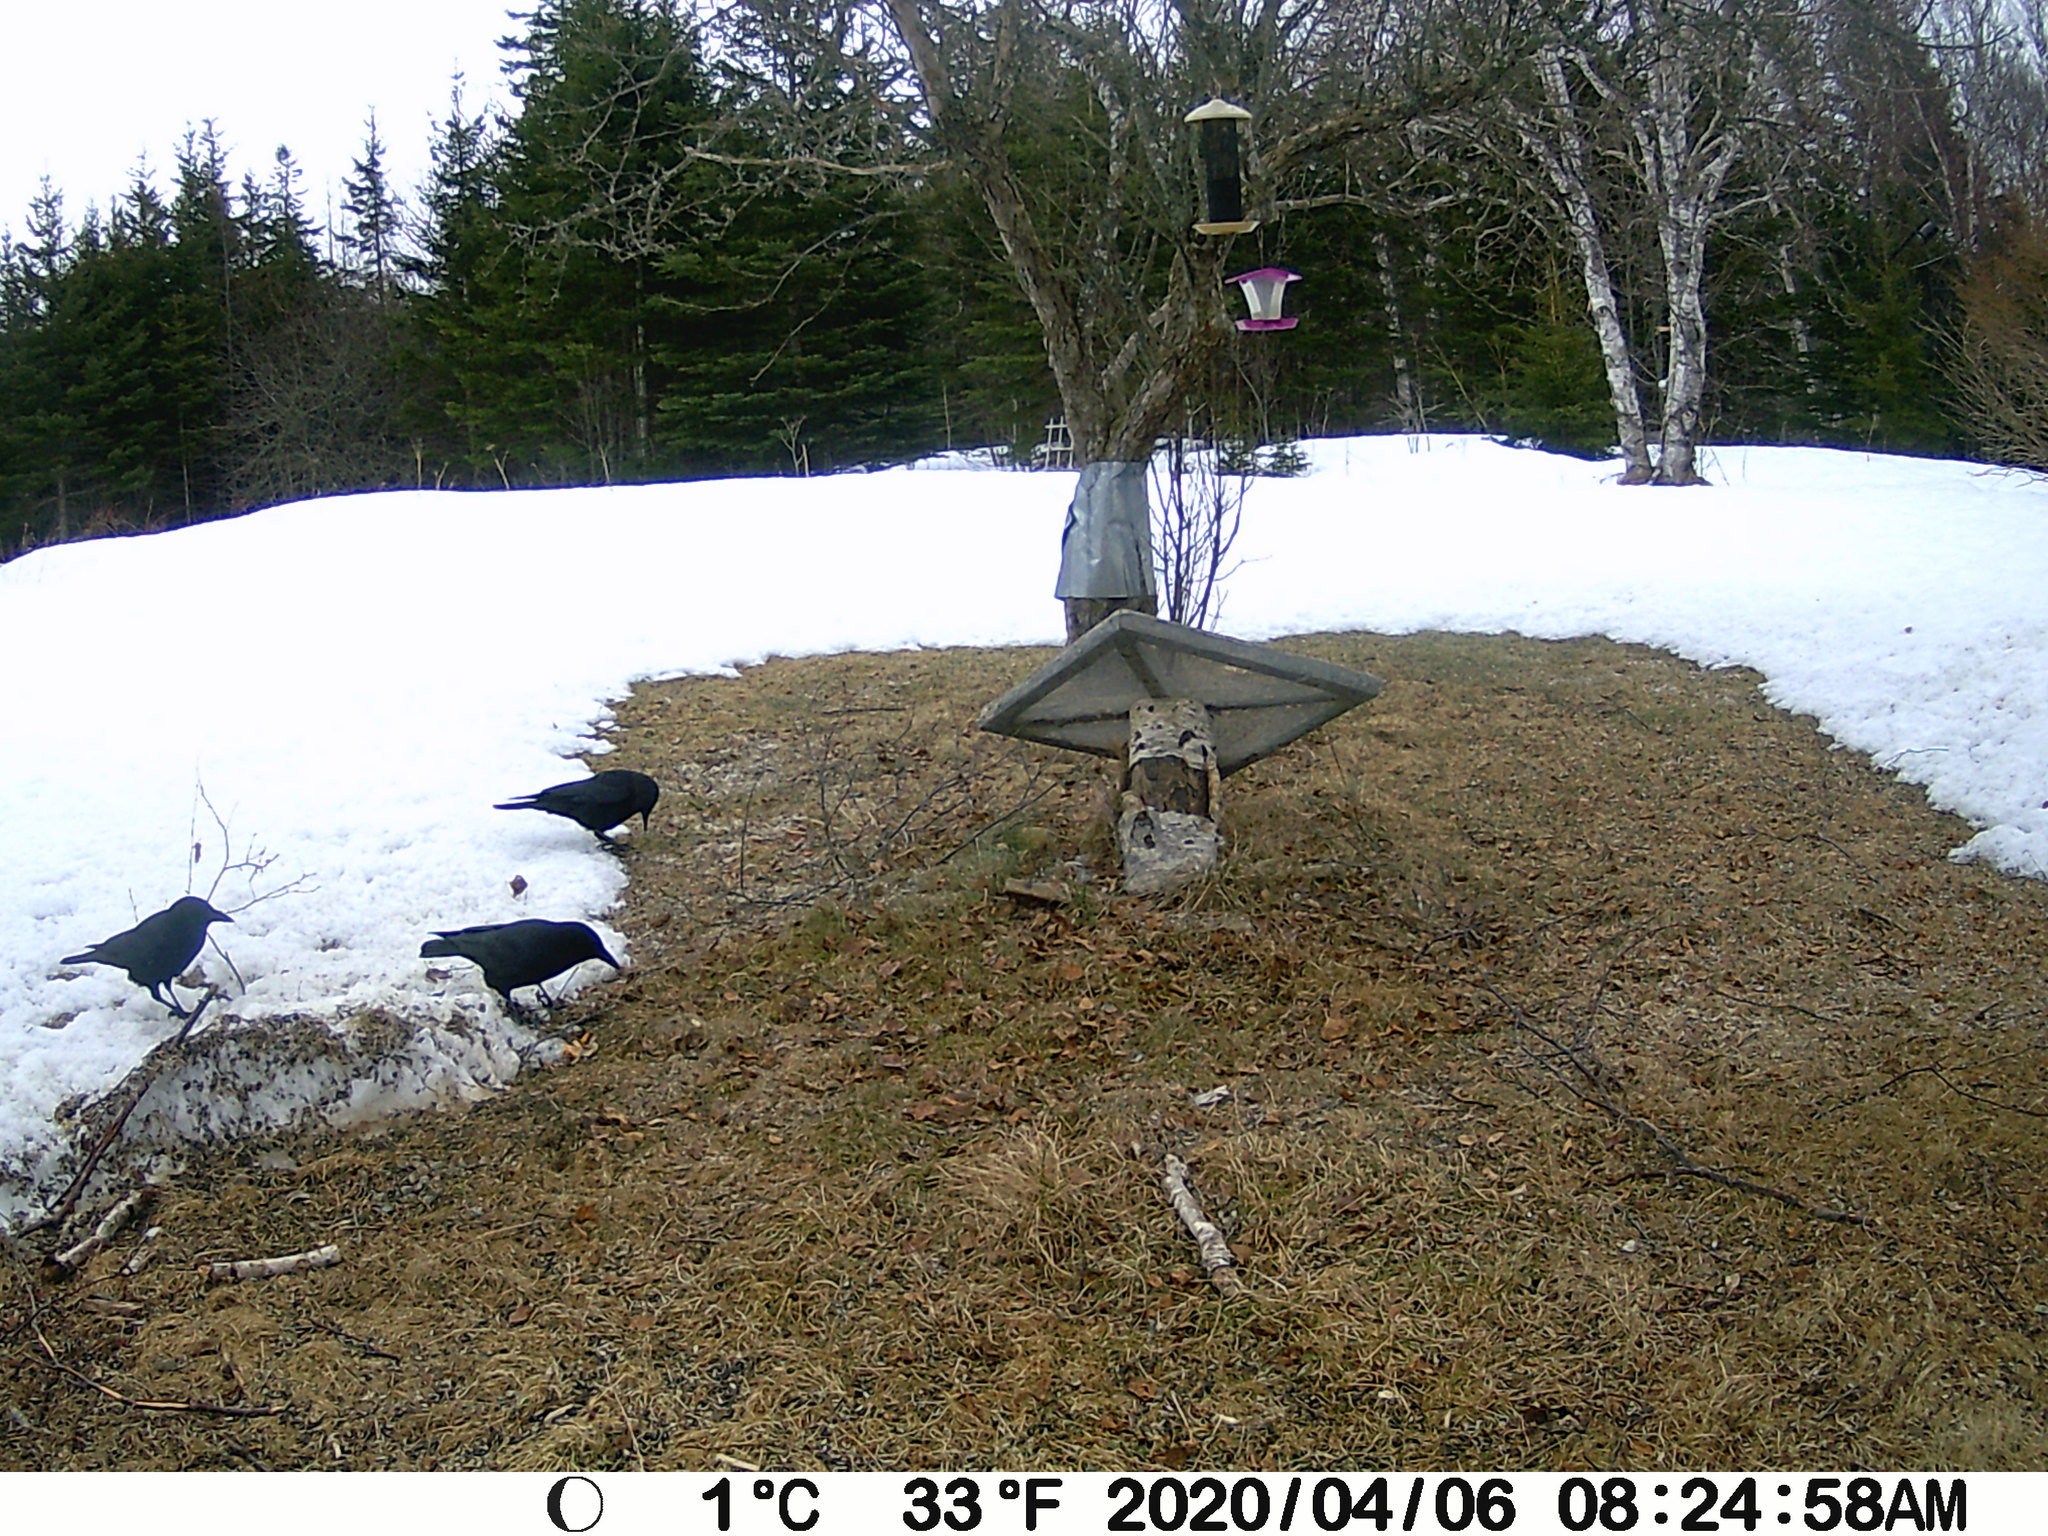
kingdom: Animalia
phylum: Chordata
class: Aves
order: Passeriformes
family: Corvidae
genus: Corvus
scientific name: Corvus brachyrhynchos
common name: American crow
